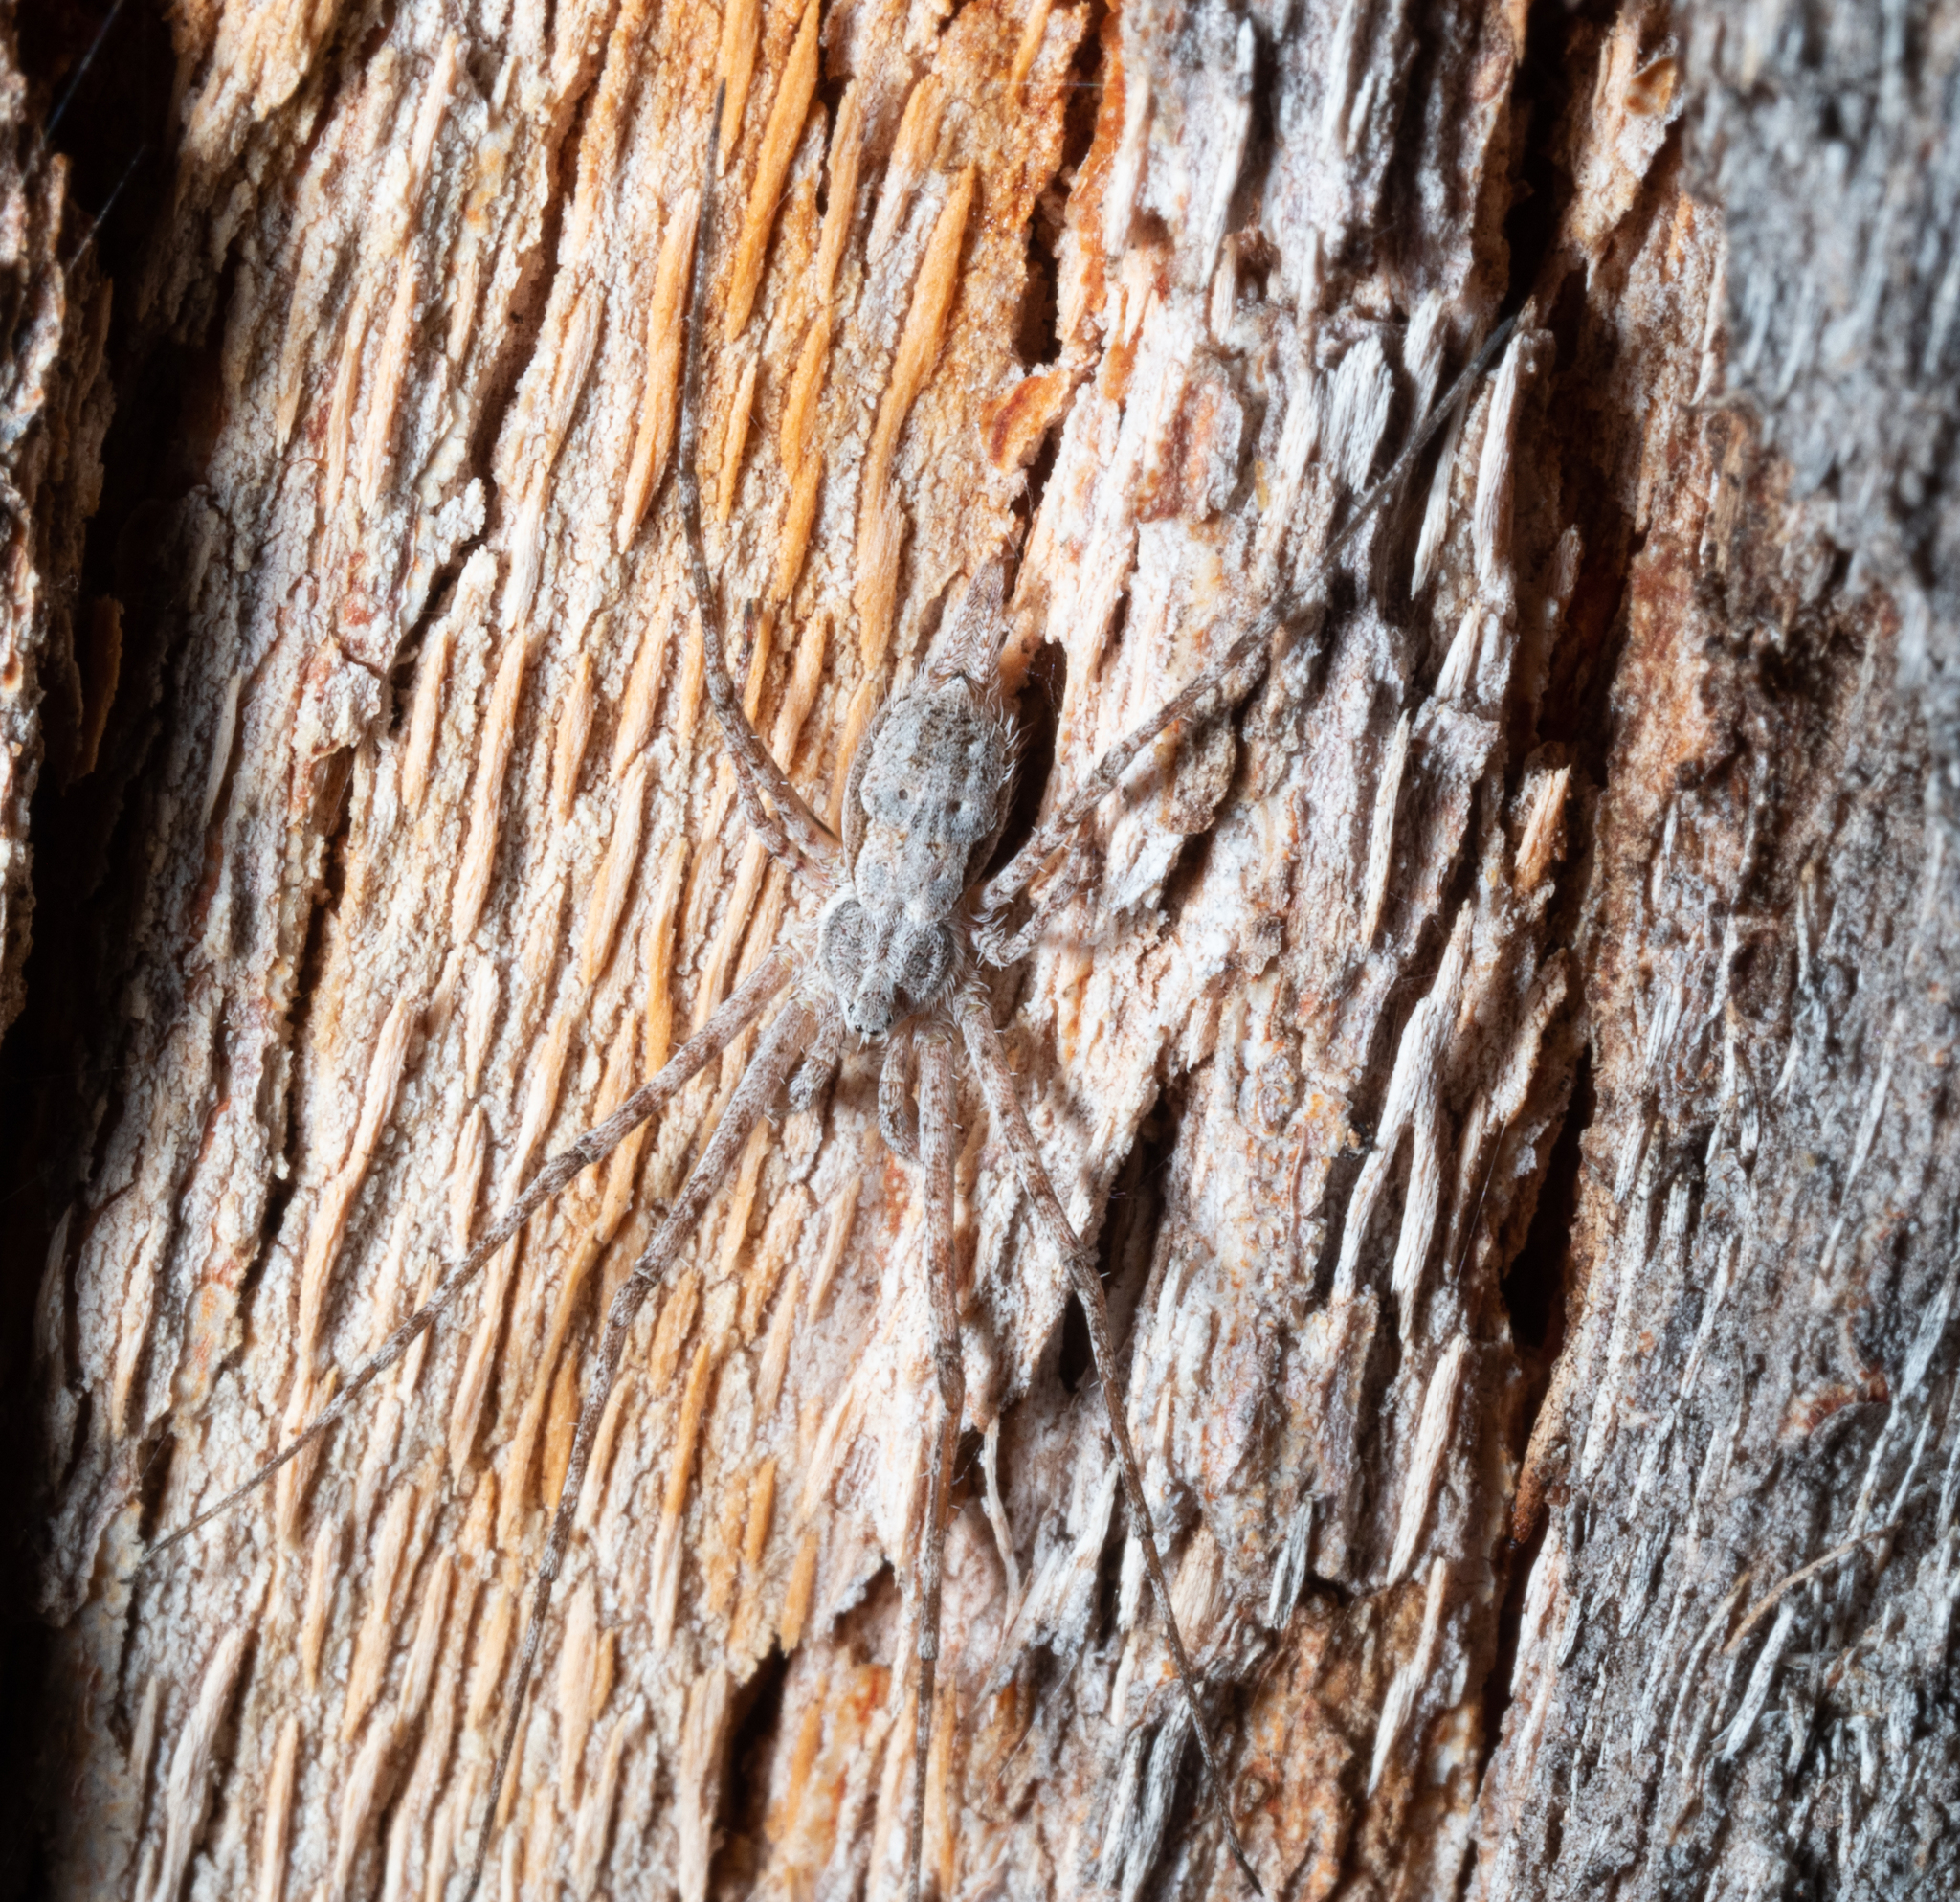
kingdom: Animalia
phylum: Arthropoda
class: Arachnida
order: Araneae
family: Hersiliidae
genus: Tamopsis
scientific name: Tamopsis fickerti
